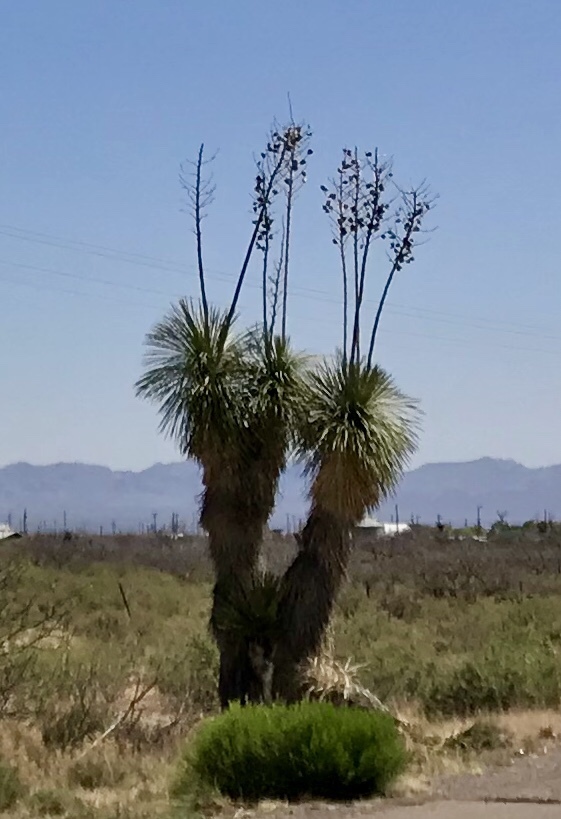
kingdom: Plantae
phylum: Tracheophyta
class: Liliopsida
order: Asparagales
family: Asparagaceae
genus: Yucca
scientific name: Yucca elata
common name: Palmella
